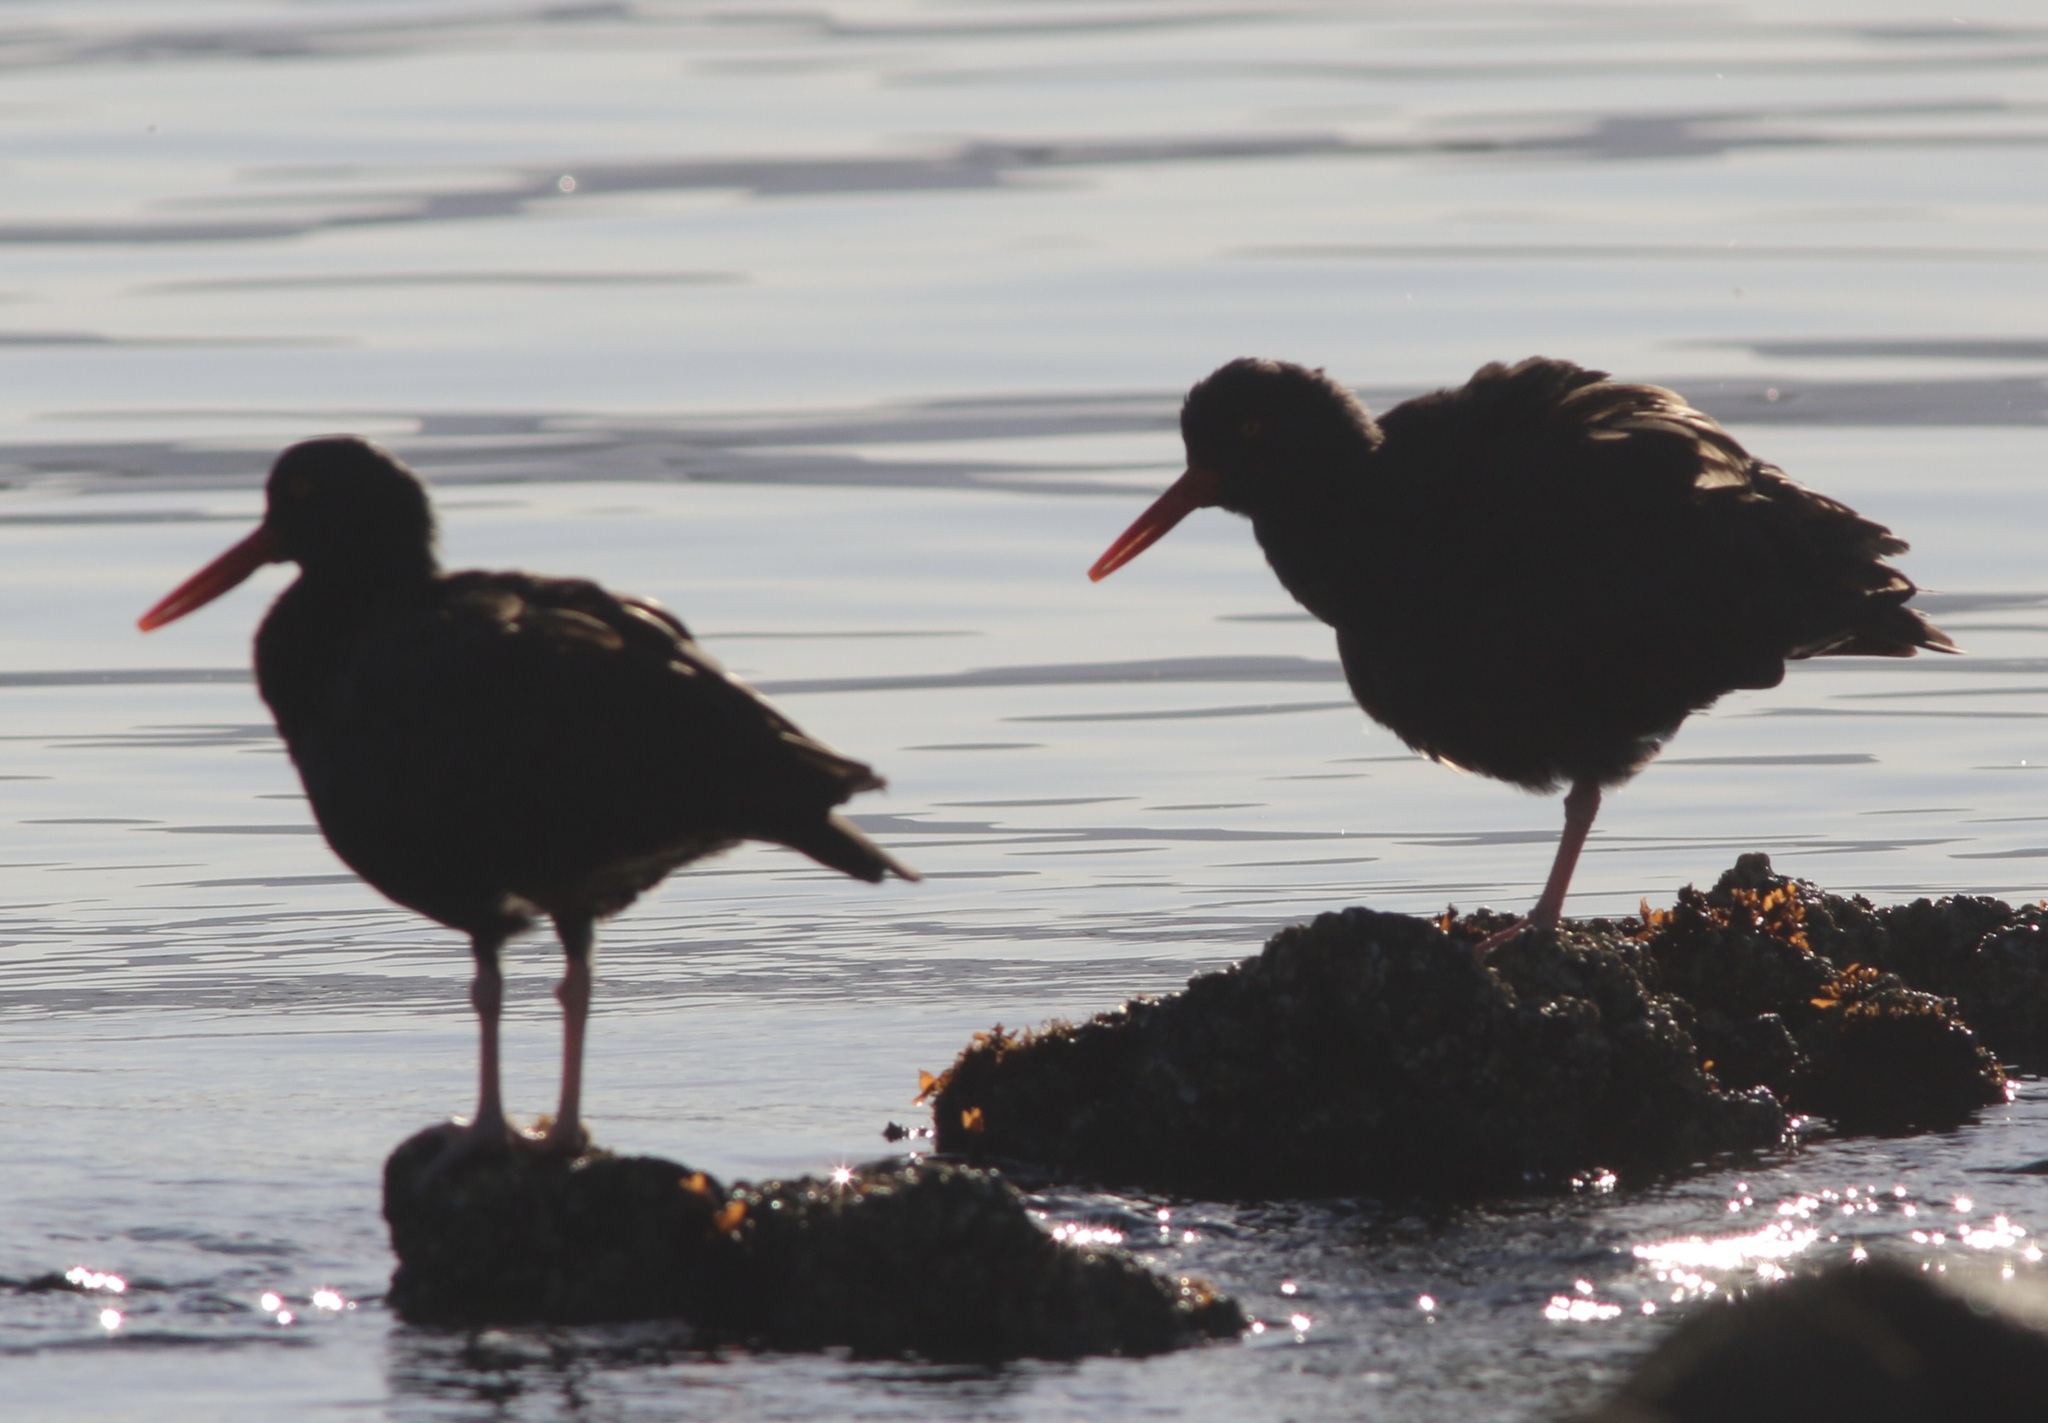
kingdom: Animalia
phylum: Chordata
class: Aves
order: Charadriiformes
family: Haematopodidae
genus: Haematopus
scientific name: Haematopus bachmani
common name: Black oystercatcher
